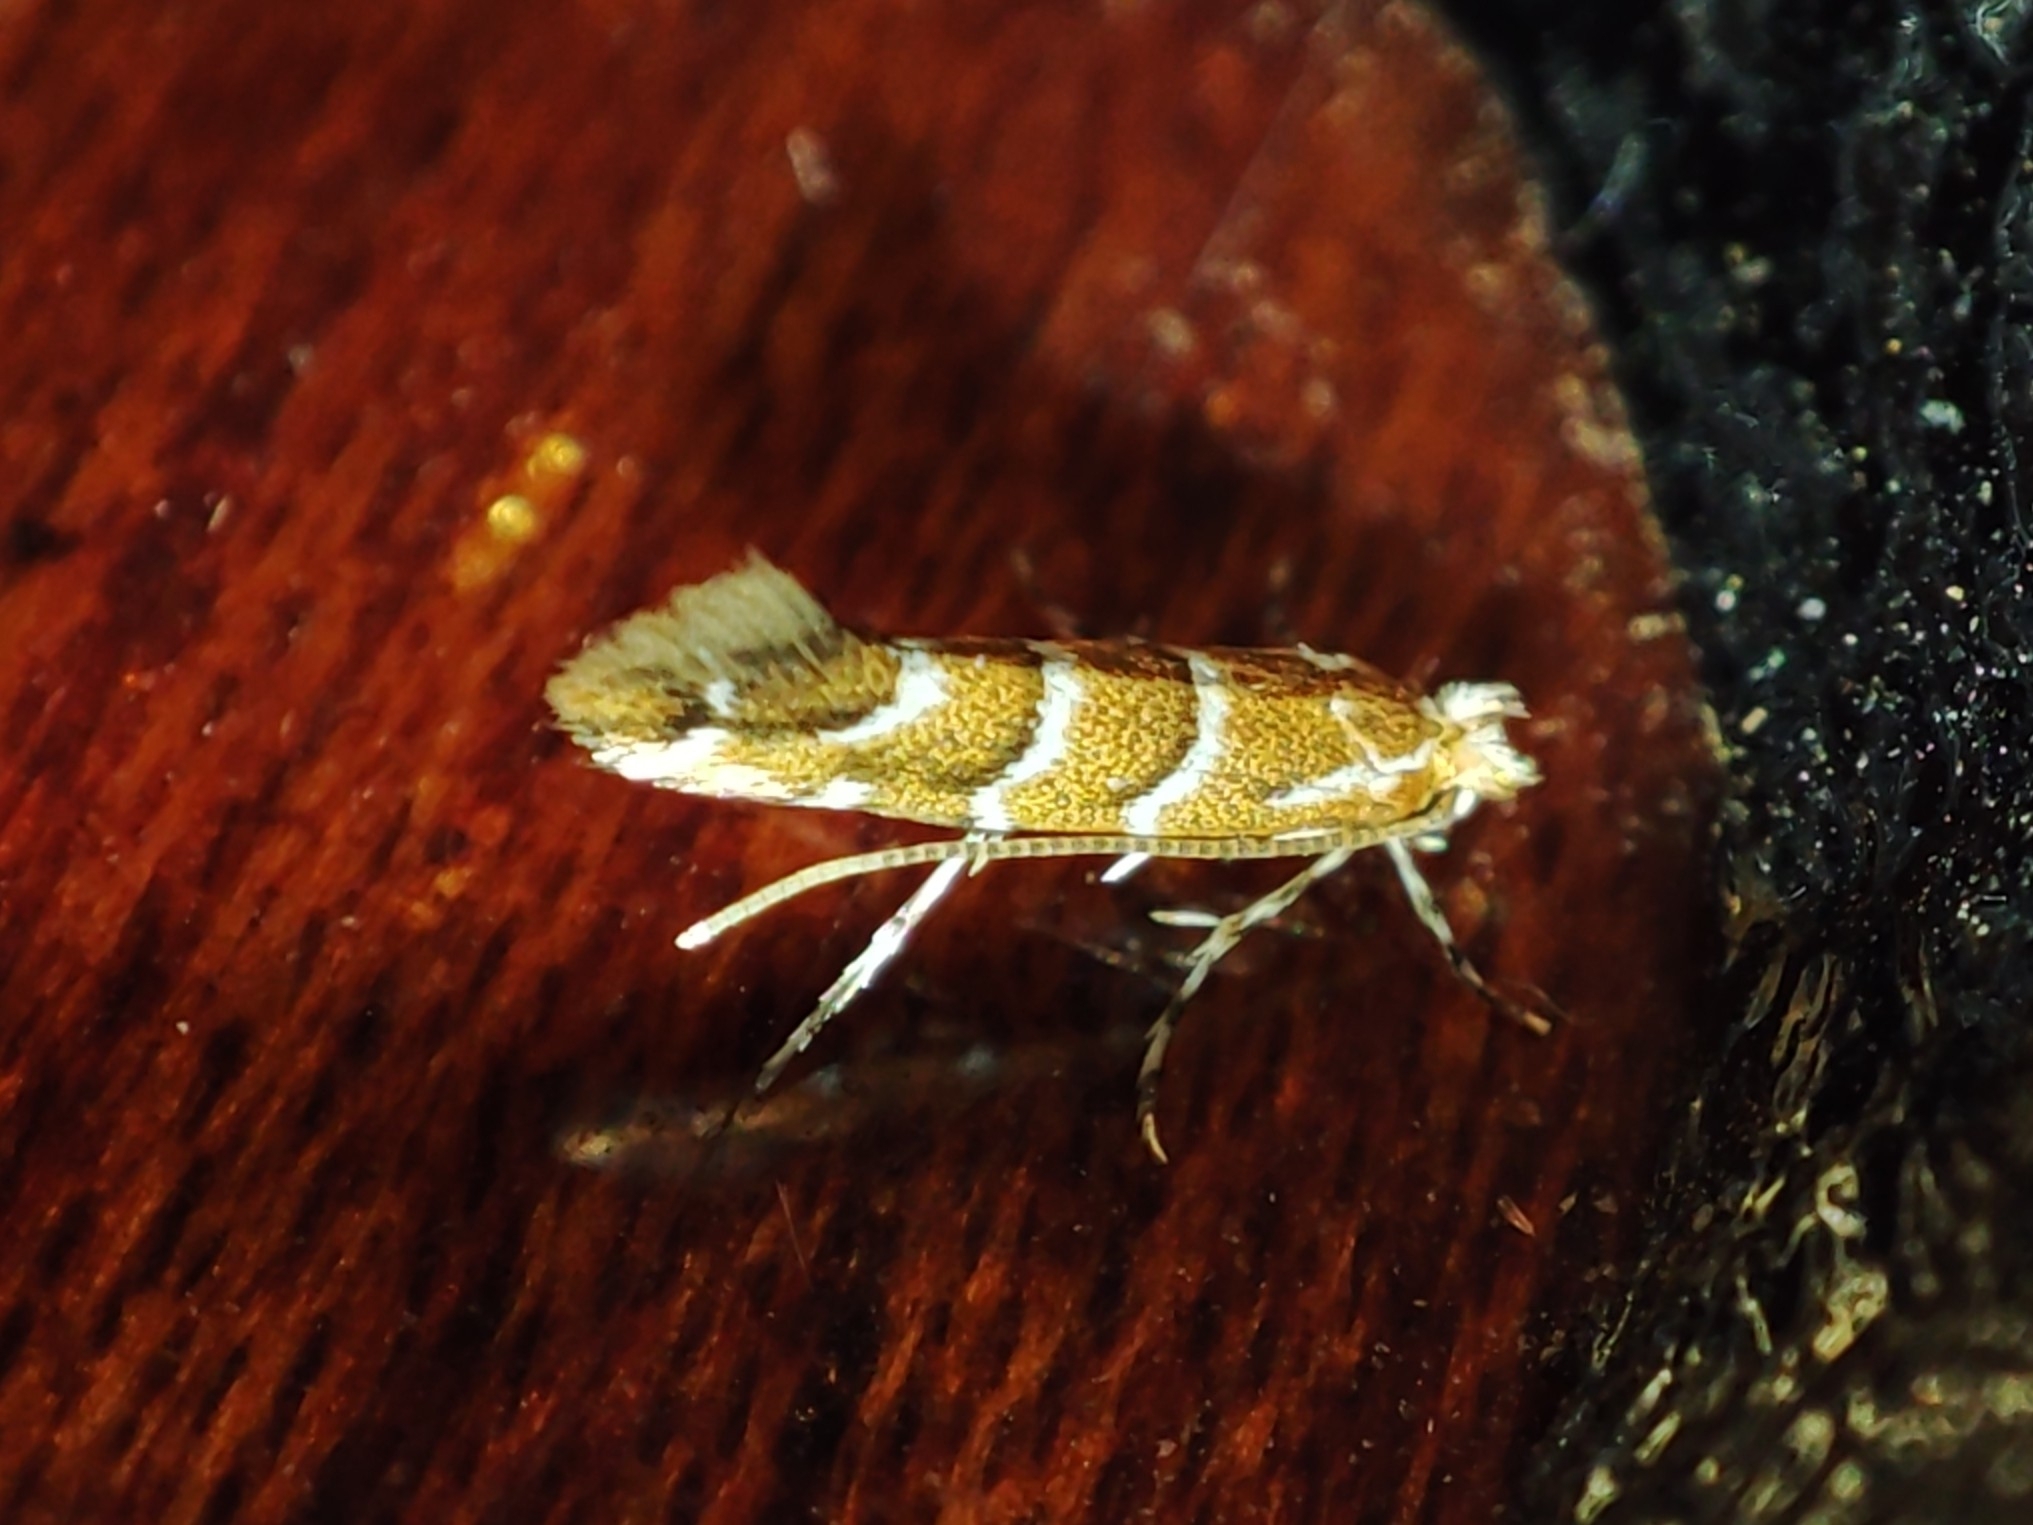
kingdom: Animalia
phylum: Arthropoda
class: Insecta
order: Lepidoptera
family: Gracillariidae
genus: Cameraria
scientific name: Cameraria ohridella
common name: Horse-chestnut leaf-miner
